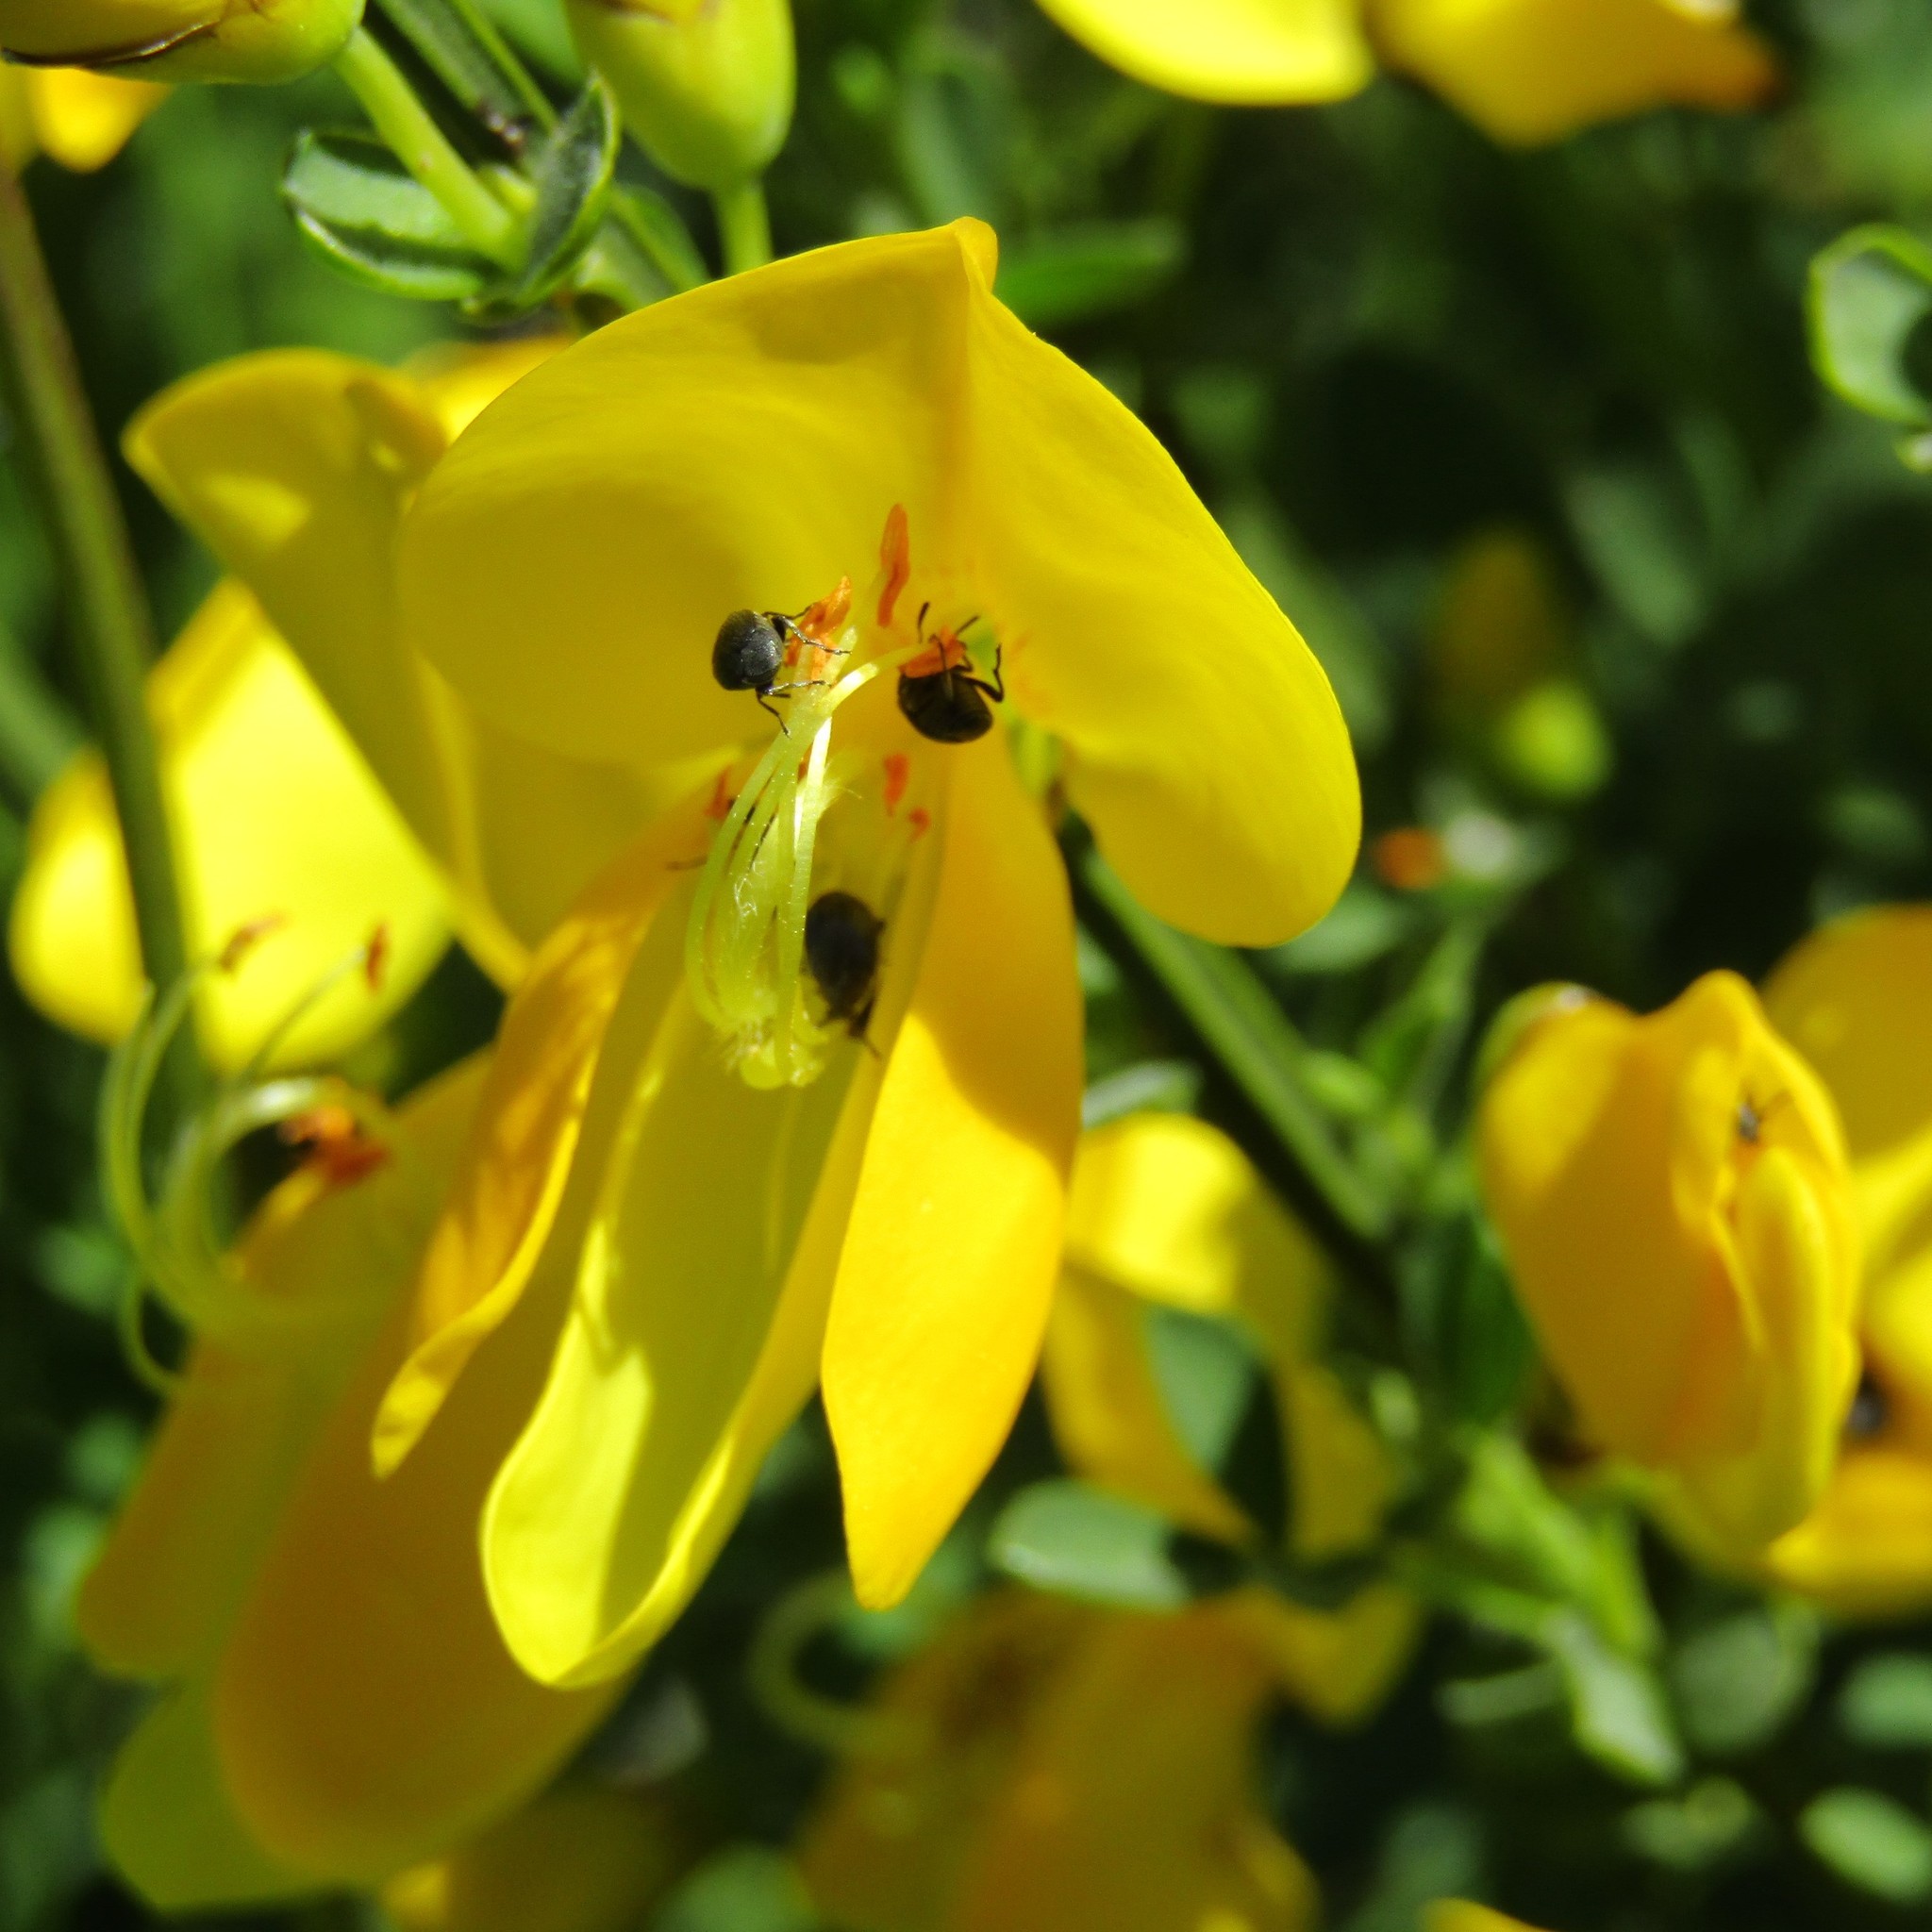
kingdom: Animalia
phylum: Arthropoda
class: Insecta
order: Coleoptera
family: Chrysomelidae
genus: Bruchidius
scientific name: Bruchidius villosus
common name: Scotch broom bruchid
